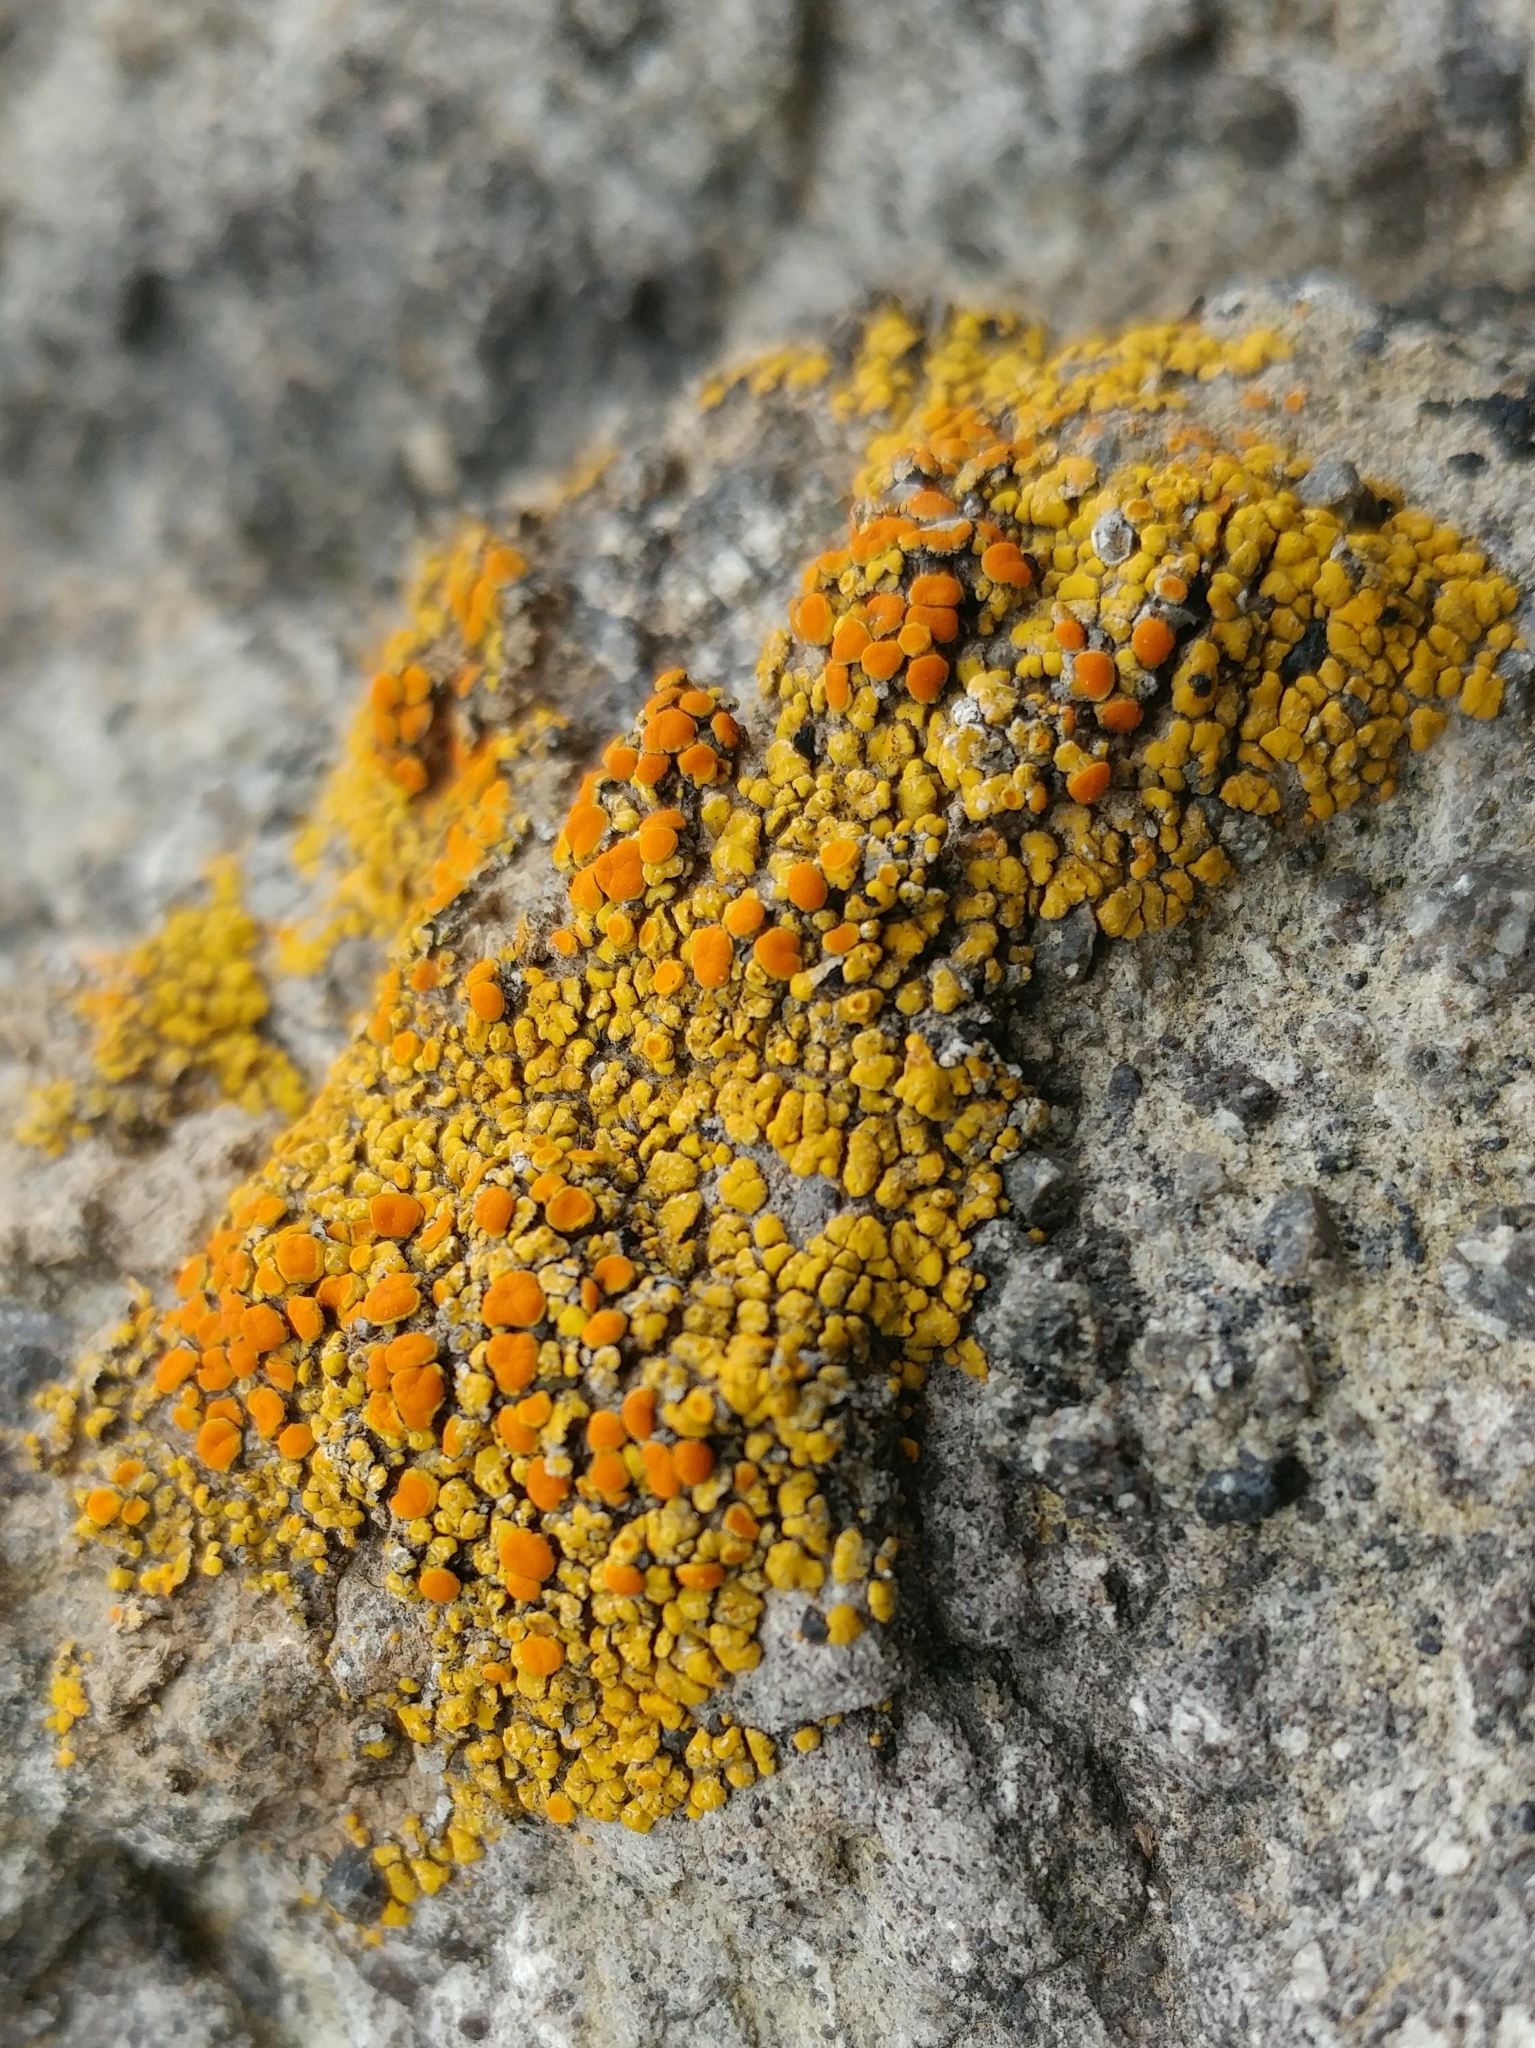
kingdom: Fungi
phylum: Ascomycota
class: Lecanoromycetes
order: Teloschistales
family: Teloschistaceae
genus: Polycauliona
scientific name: Polycauliona bolacina
